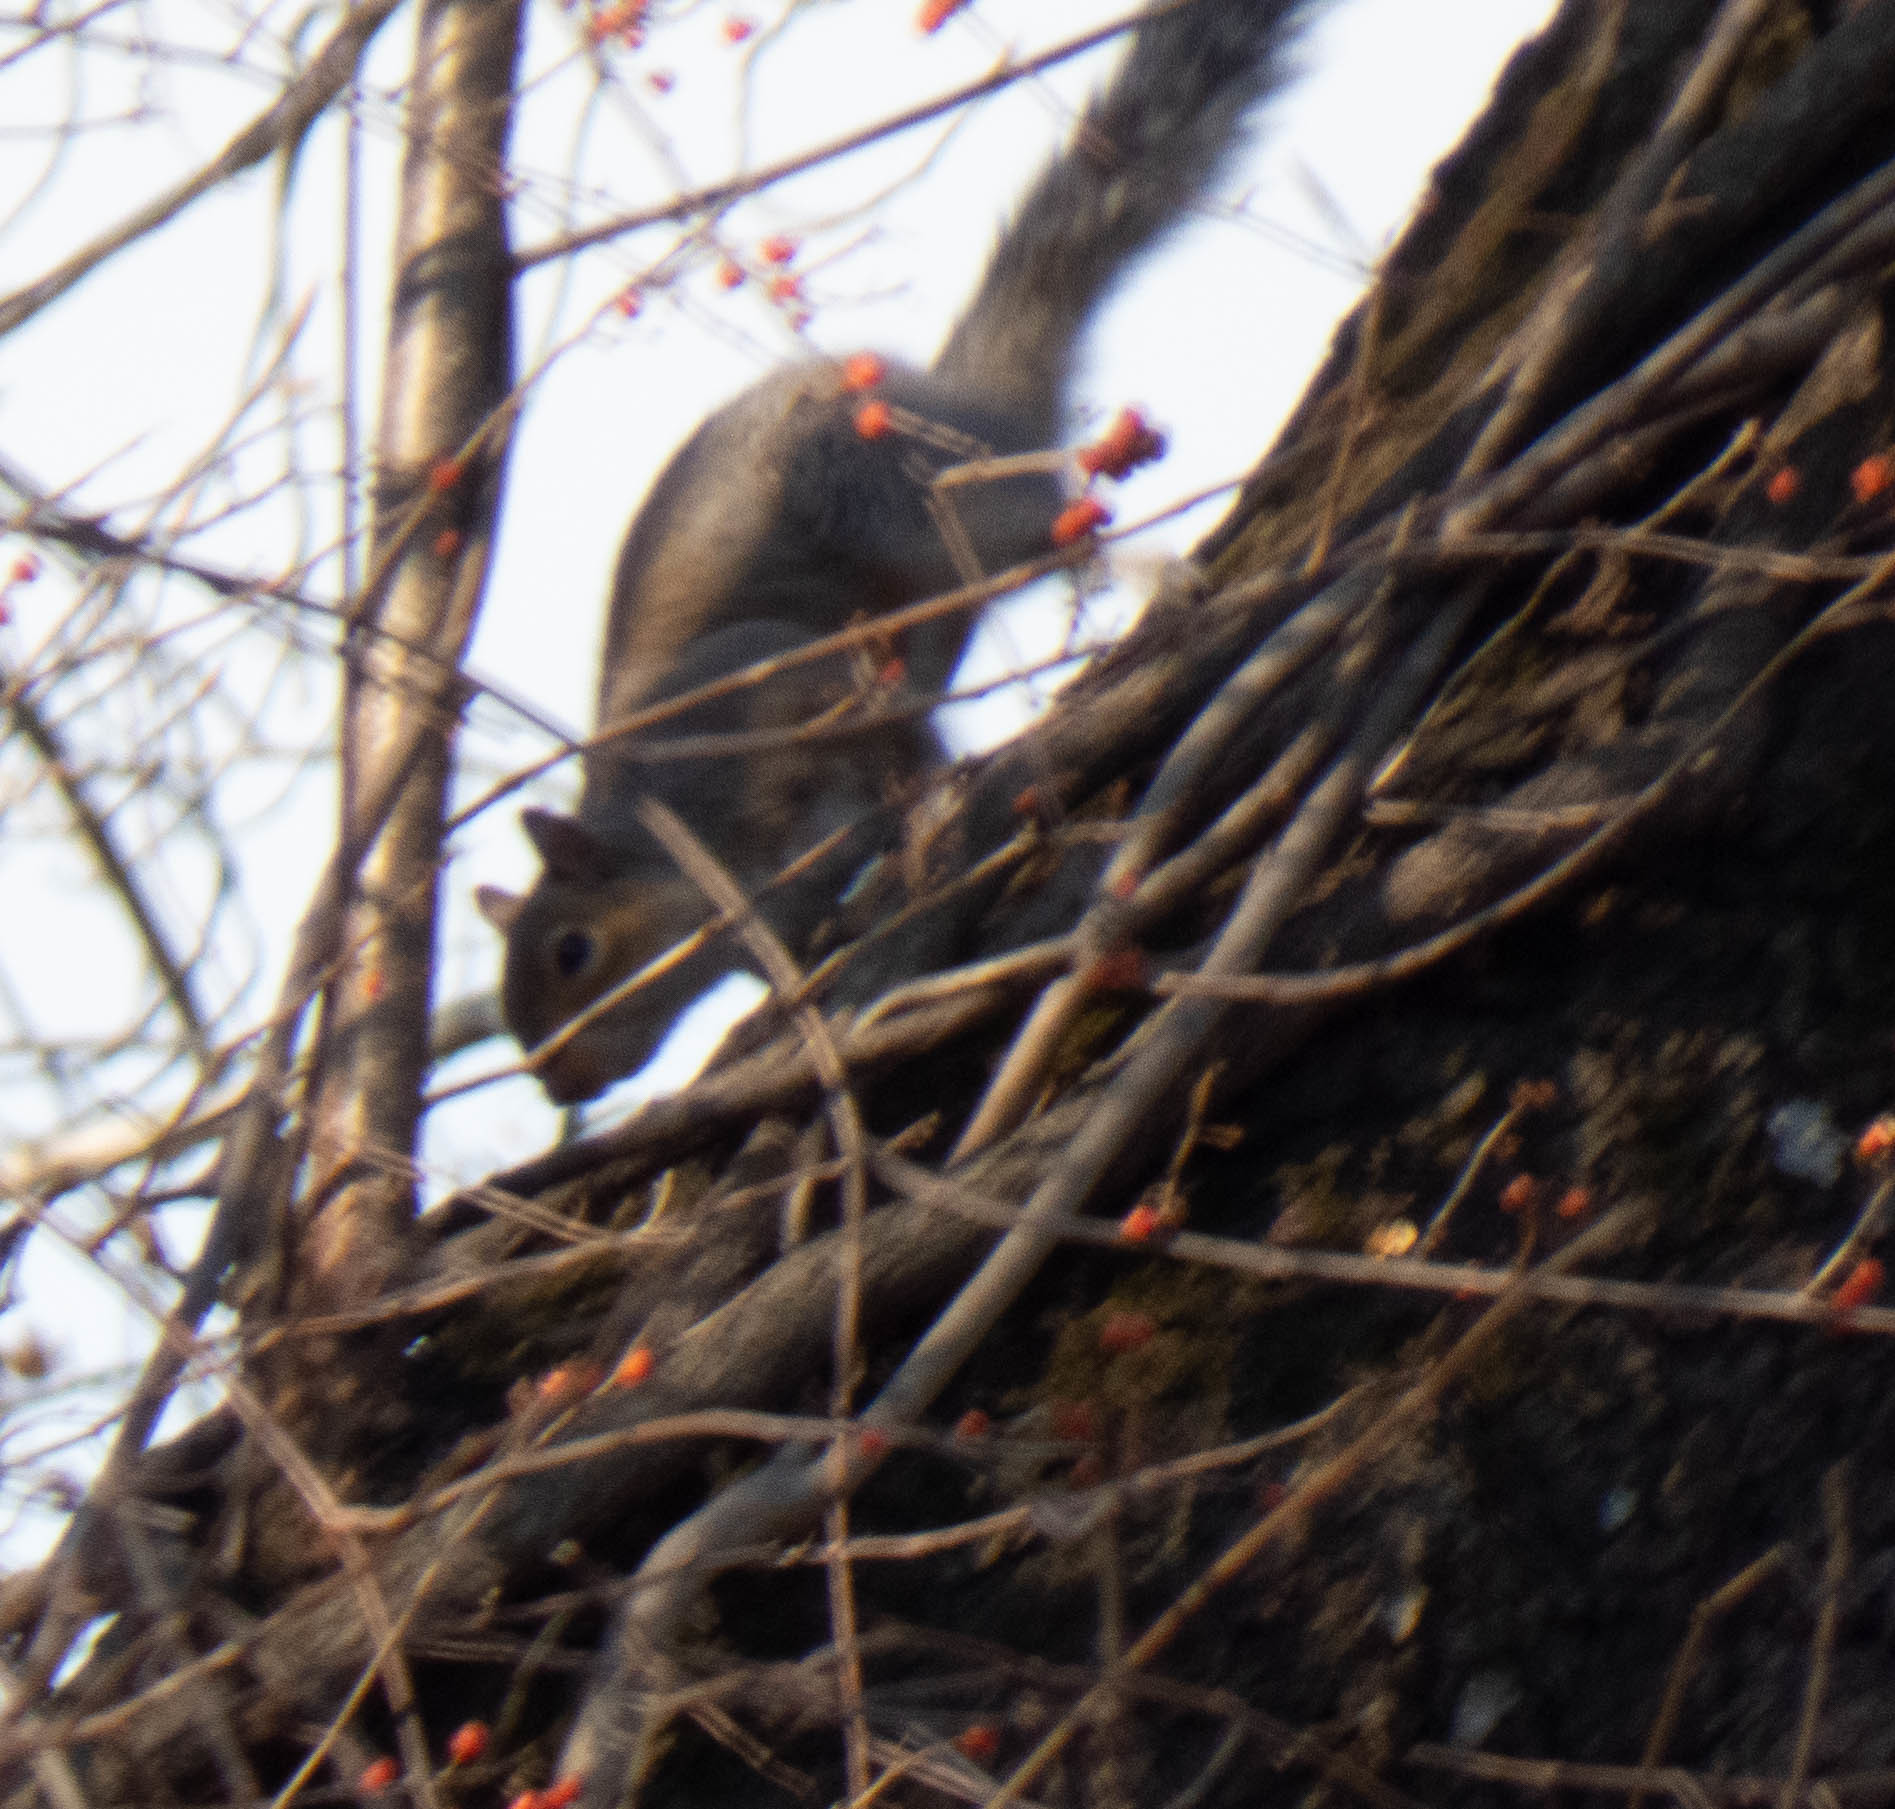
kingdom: Animalia
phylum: Chordata
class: Mammalia
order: Rodentia
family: Sciuridae
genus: Sciurus
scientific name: Sciurus carolinensis
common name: Eastern gray squirrel
